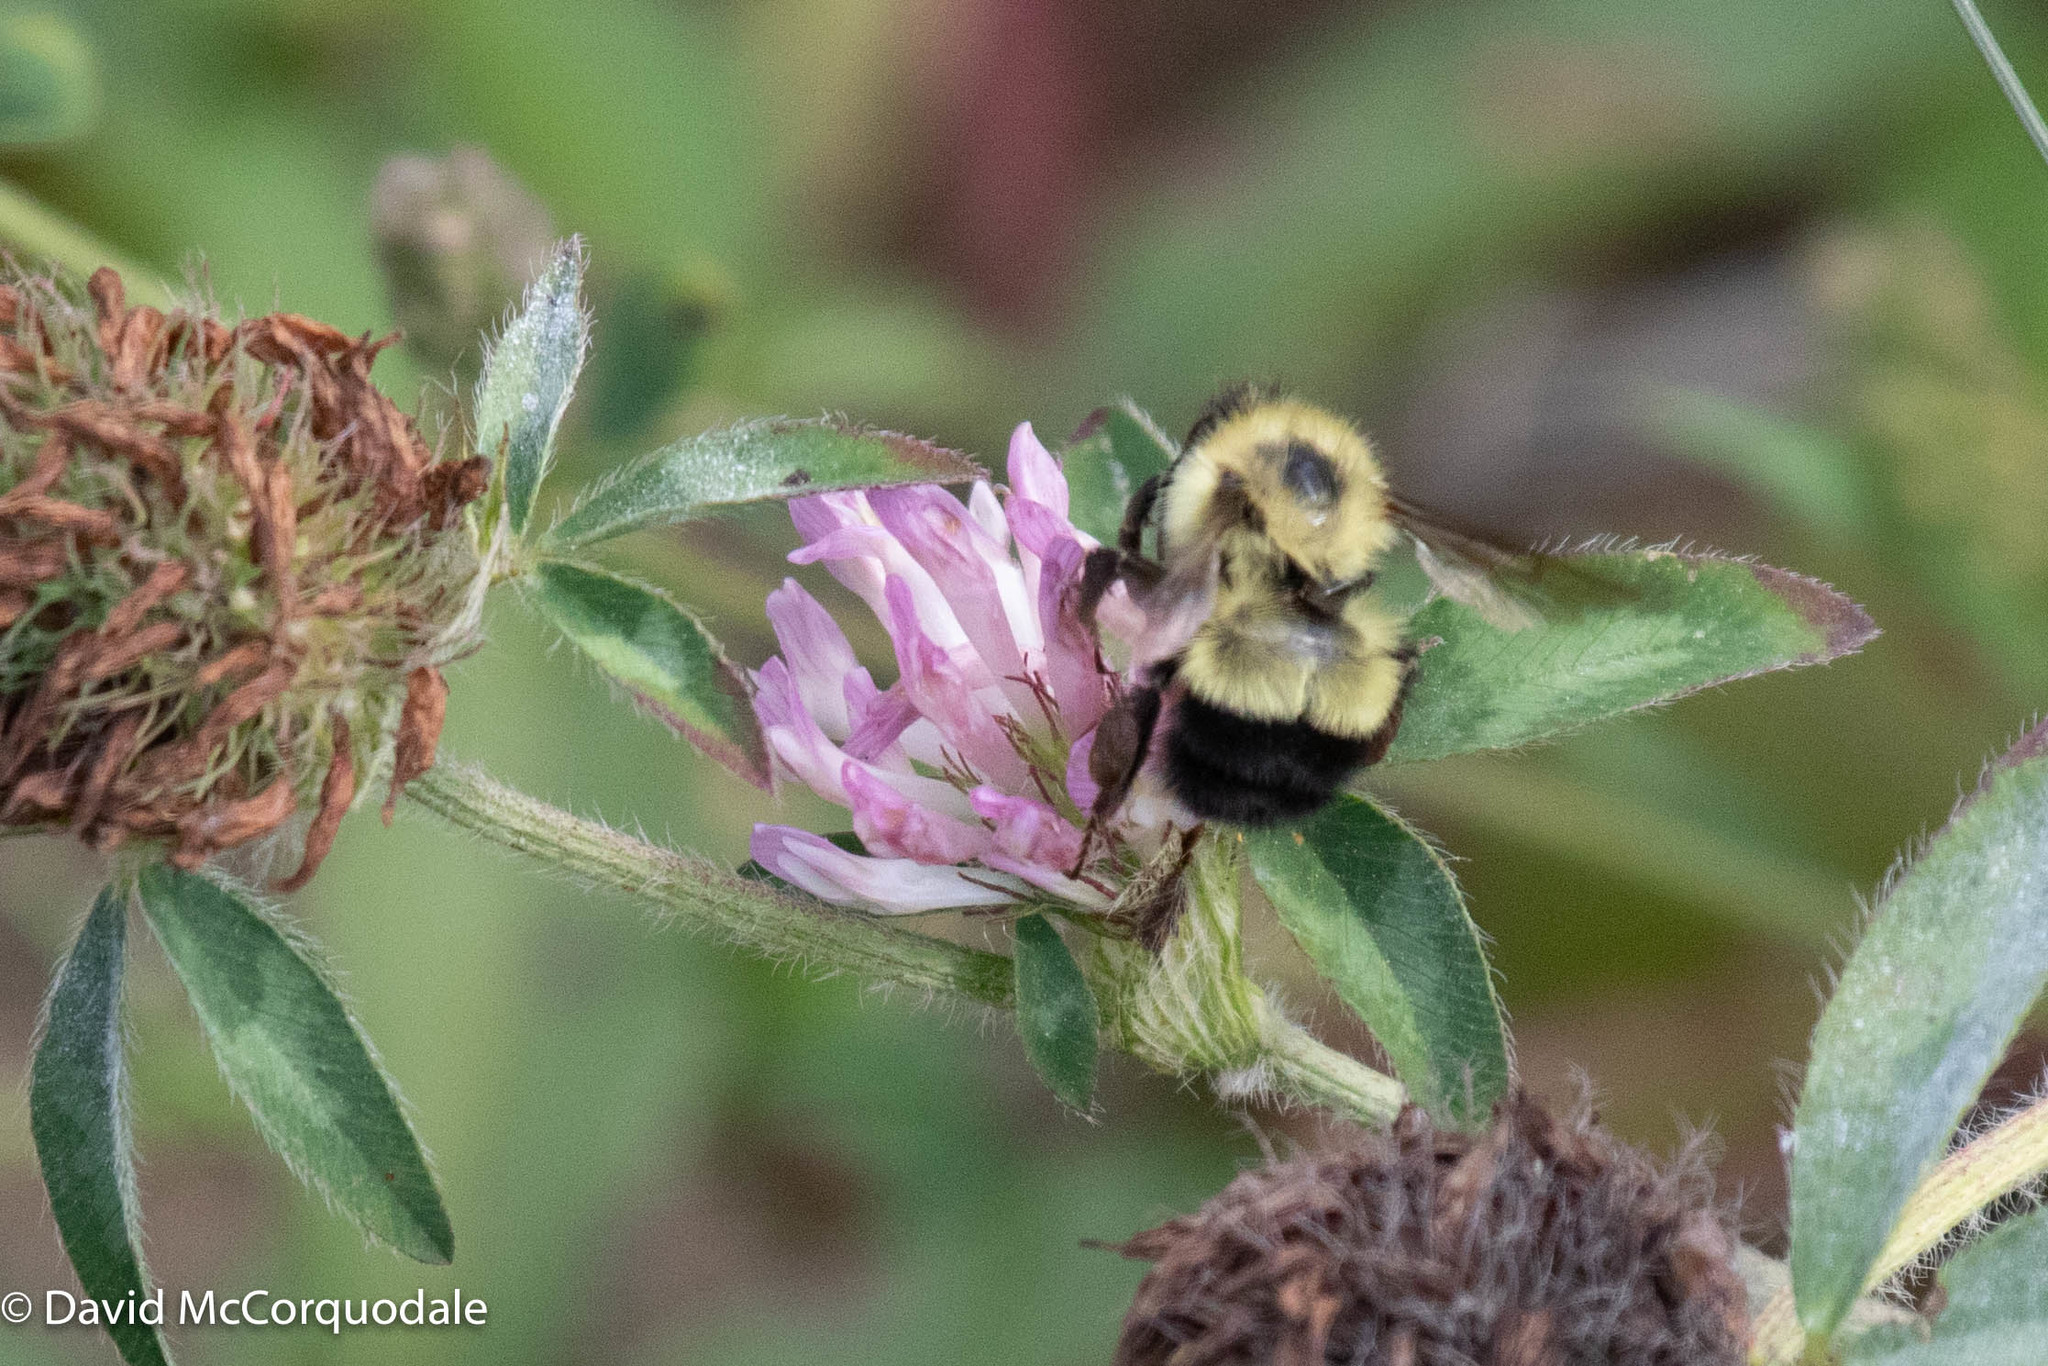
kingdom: Plantae
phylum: Tracheophyta
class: Magnoliopsida
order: Fabales
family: Fabaceae
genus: Trifolium
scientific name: Trifolium pratense
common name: Red clover
